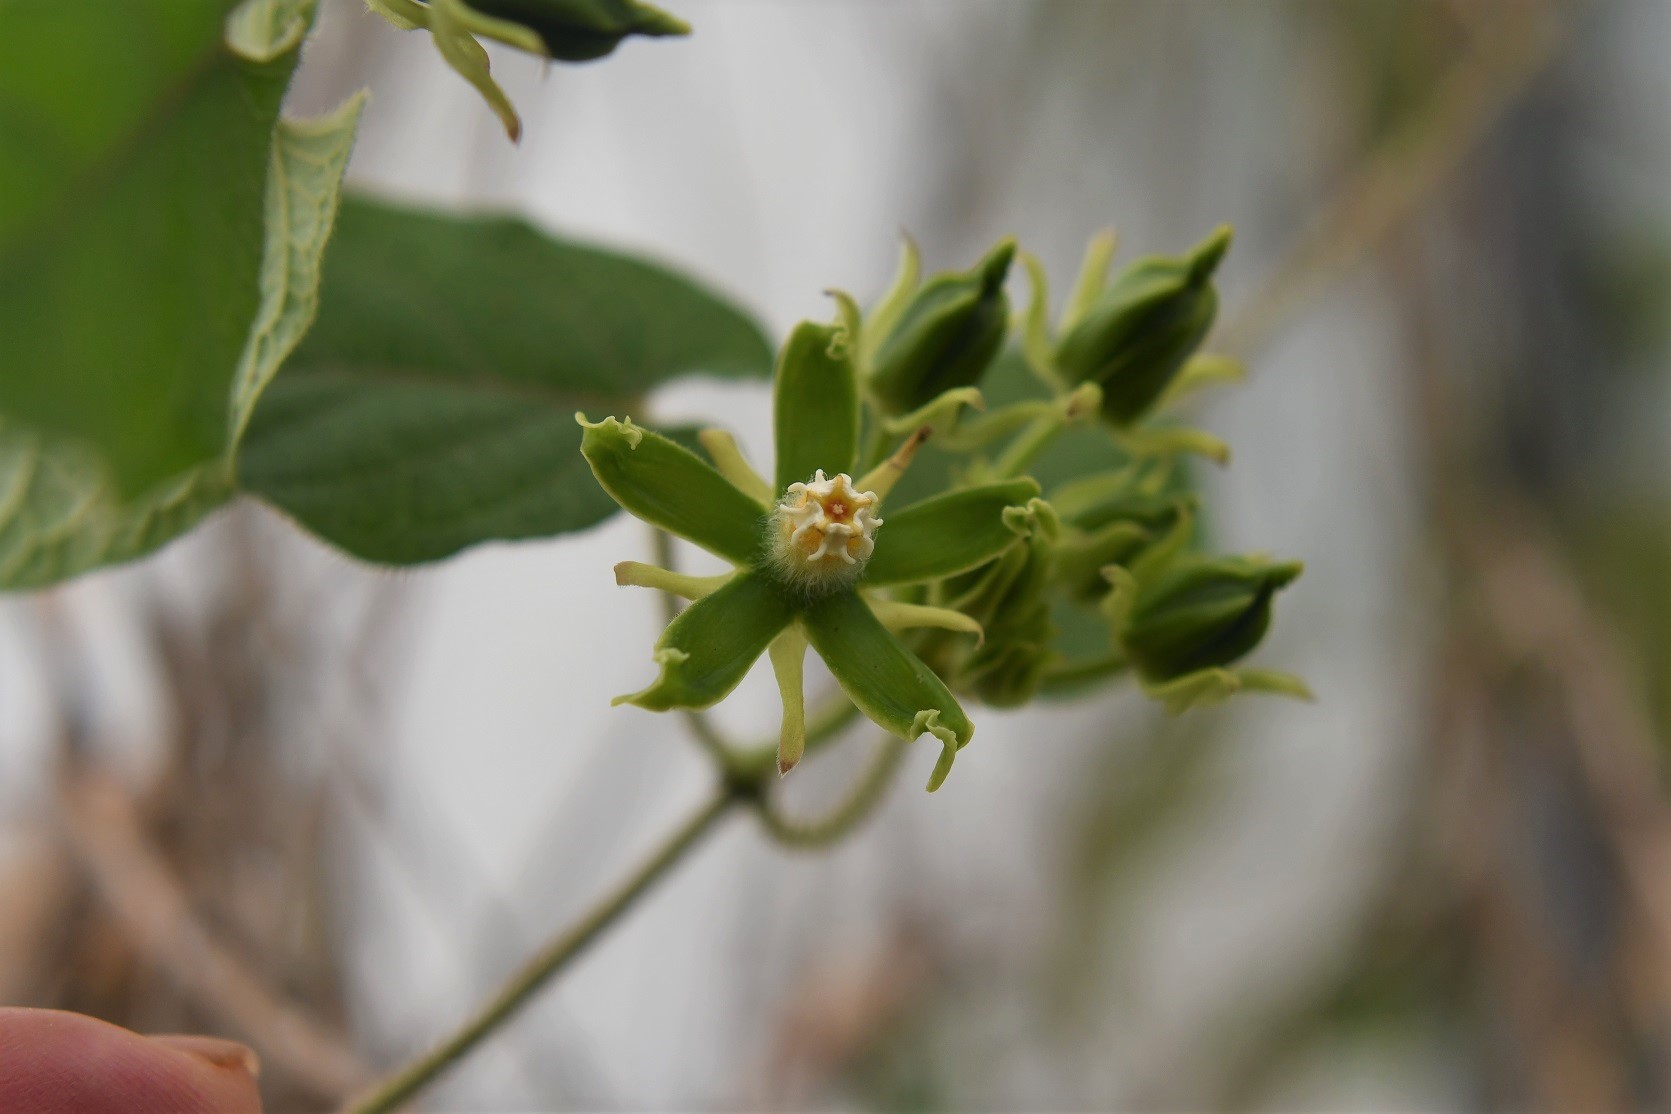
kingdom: Plantae
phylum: Tracheophyta
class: Magnoliopsida
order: Gentianales
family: Apocynaceae
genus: Gonolobus
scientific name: Gonolobus stenosepalus
